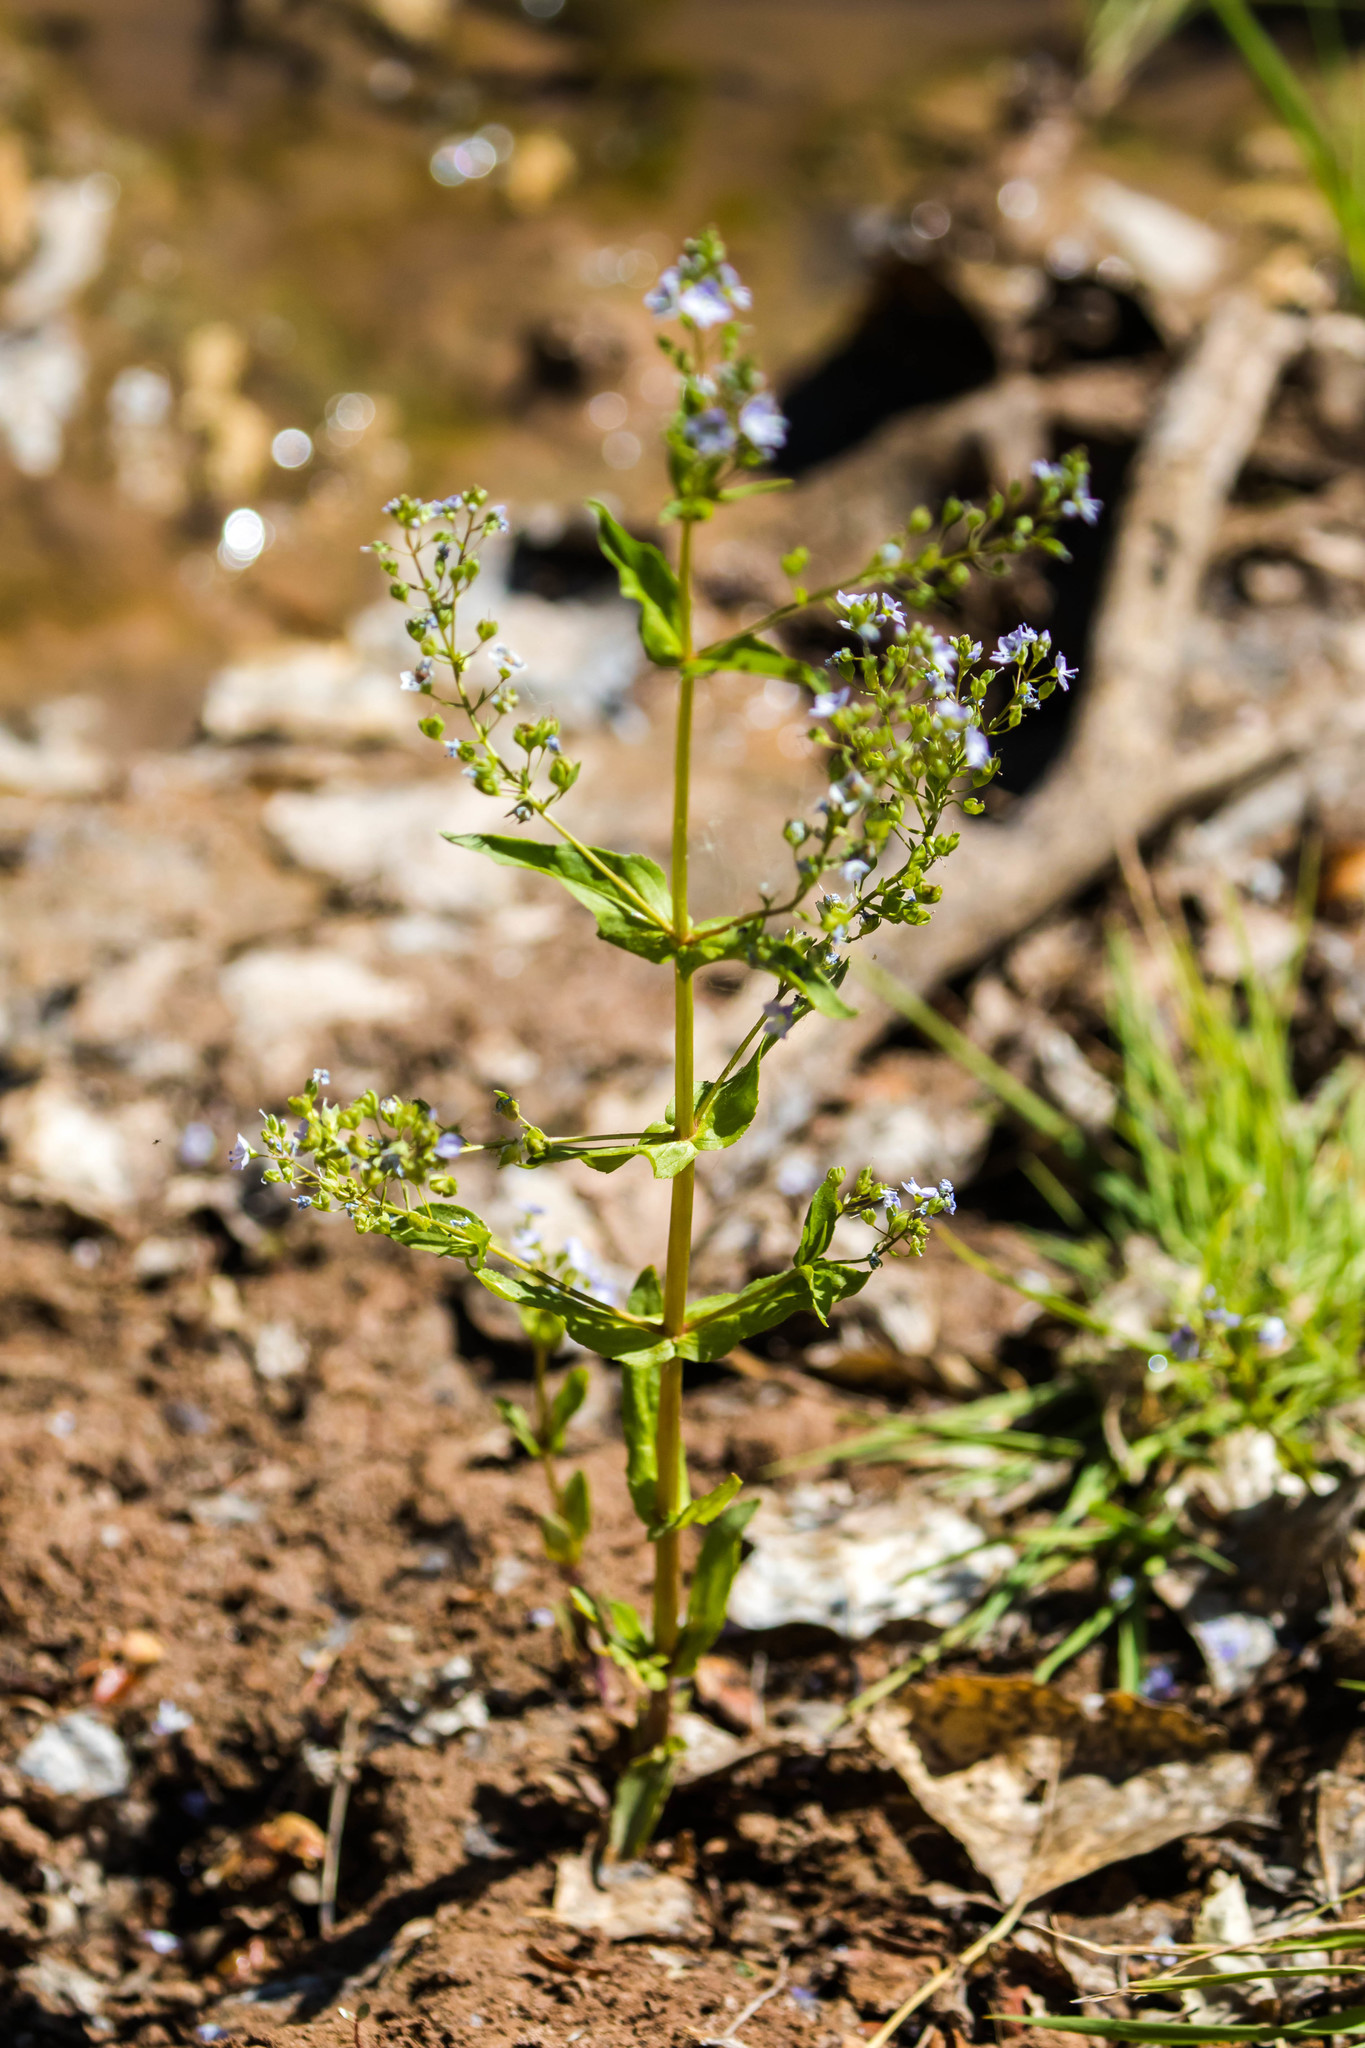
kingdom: Plantae
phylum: Tracheophyta
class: Magnoliopsida
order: Lamiales
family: Plantaginaceae
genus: Veronica
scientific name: Veronica anagallis-aquatica
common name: Water speedwell
